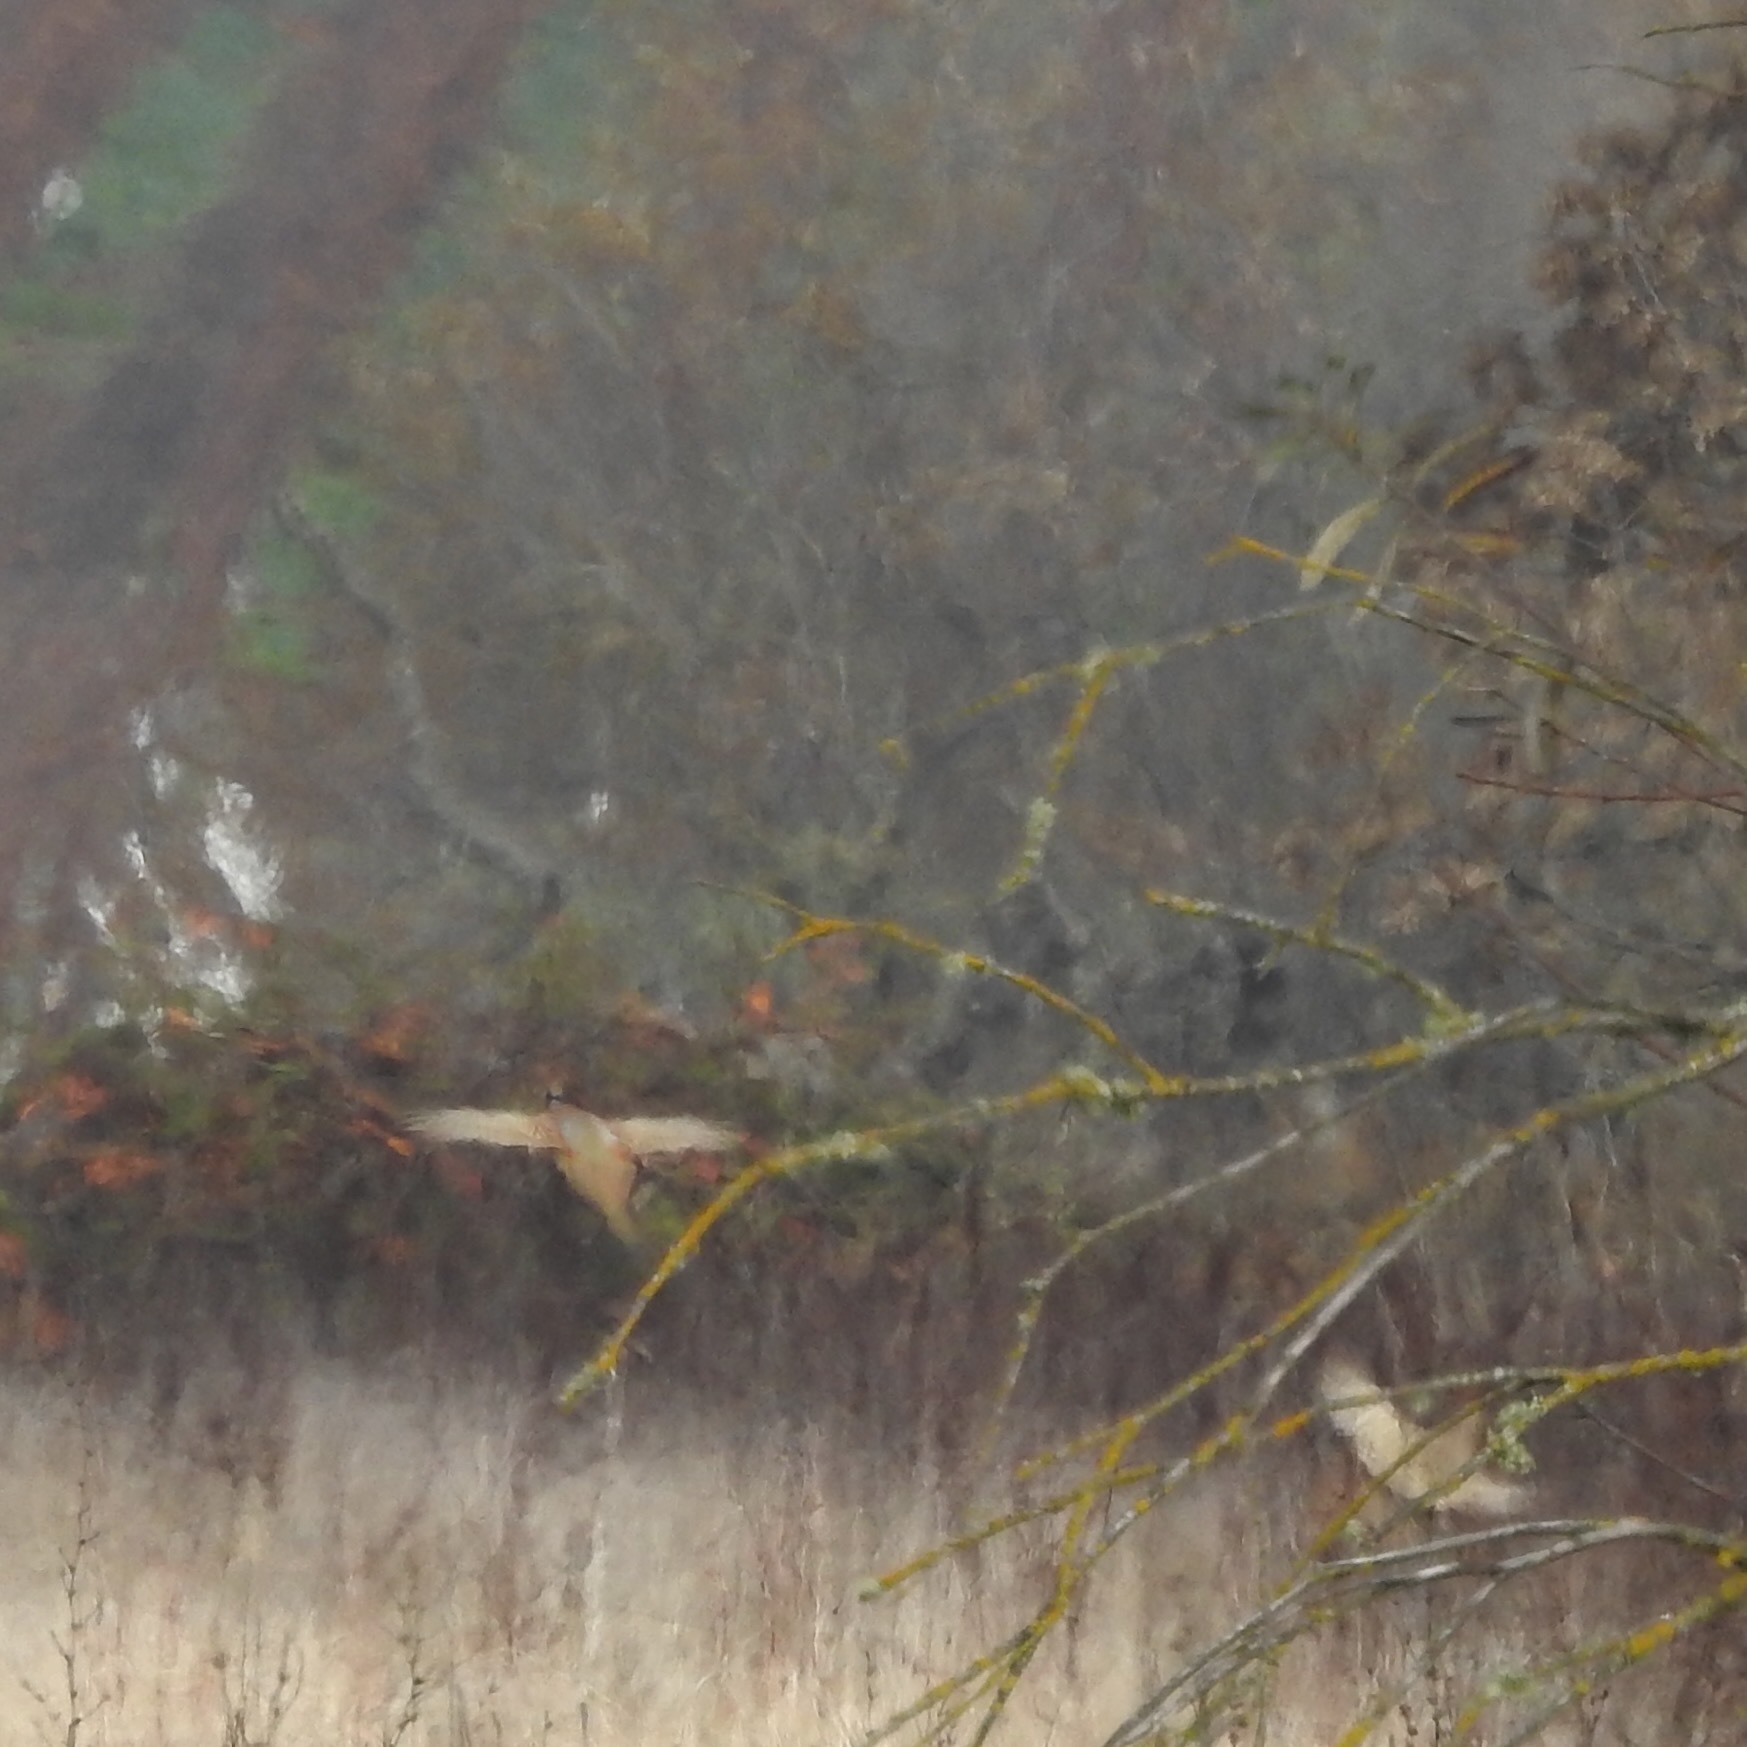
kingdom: Animalia
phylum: Chordata
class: Aves
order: Galliformes
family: Phasianidae
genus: Phasianus
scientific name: Phasianus colchicus
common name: Common pheasant
